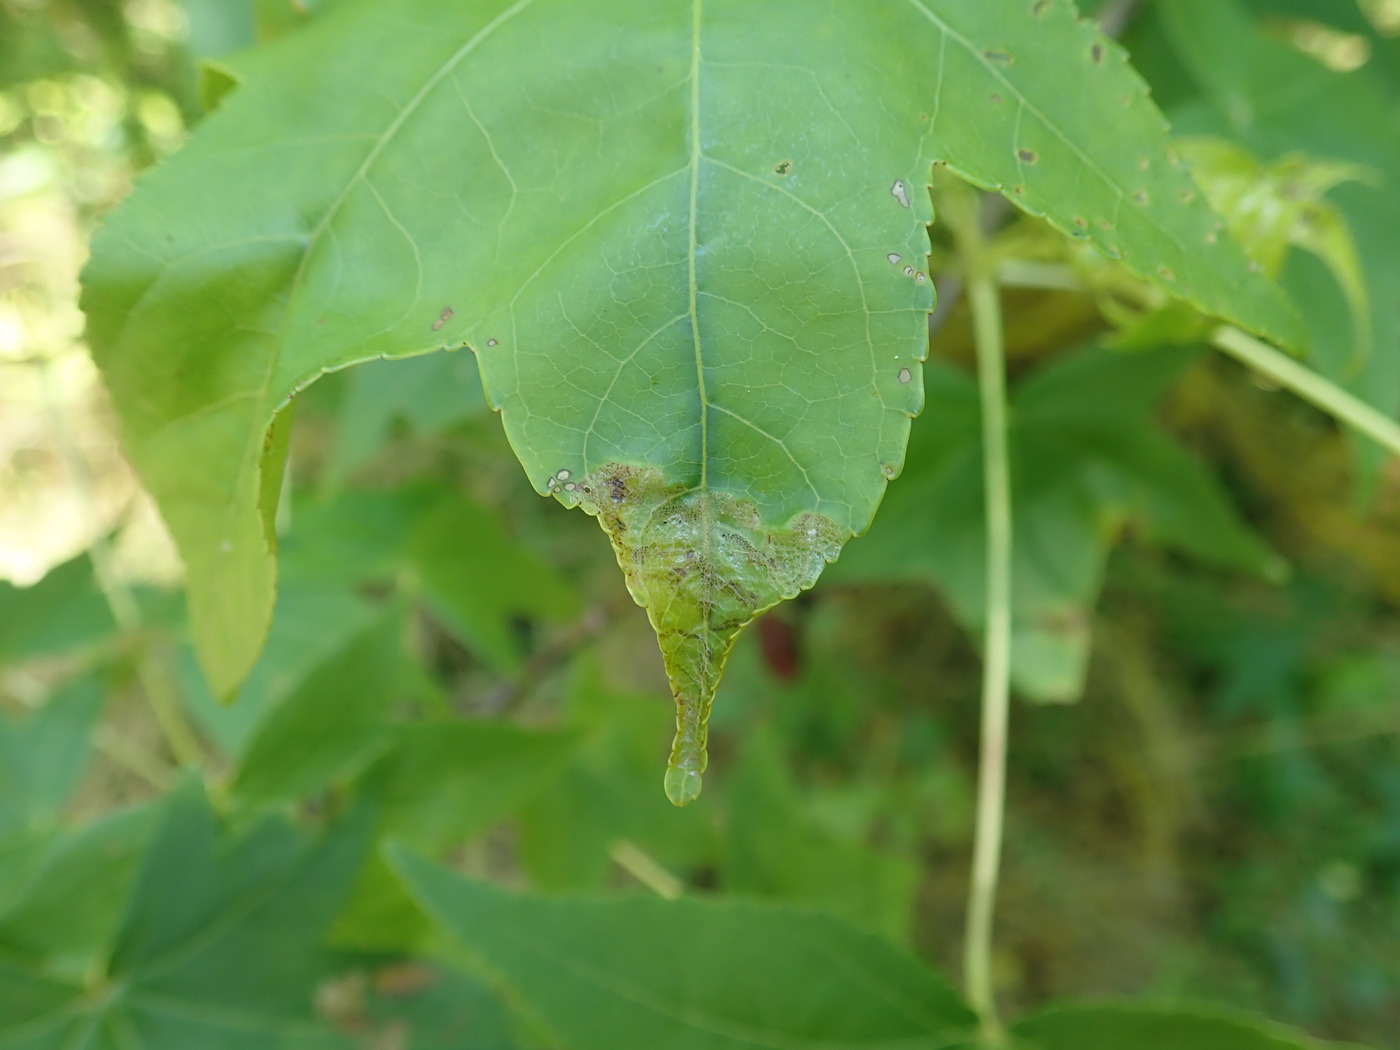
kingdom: Animalia
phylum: Arthropoda
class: Insecta
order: Lepidoptera
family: Gracillariidae
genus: Phyllocnistis
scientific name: Phyllocnistis liquidambarisella
